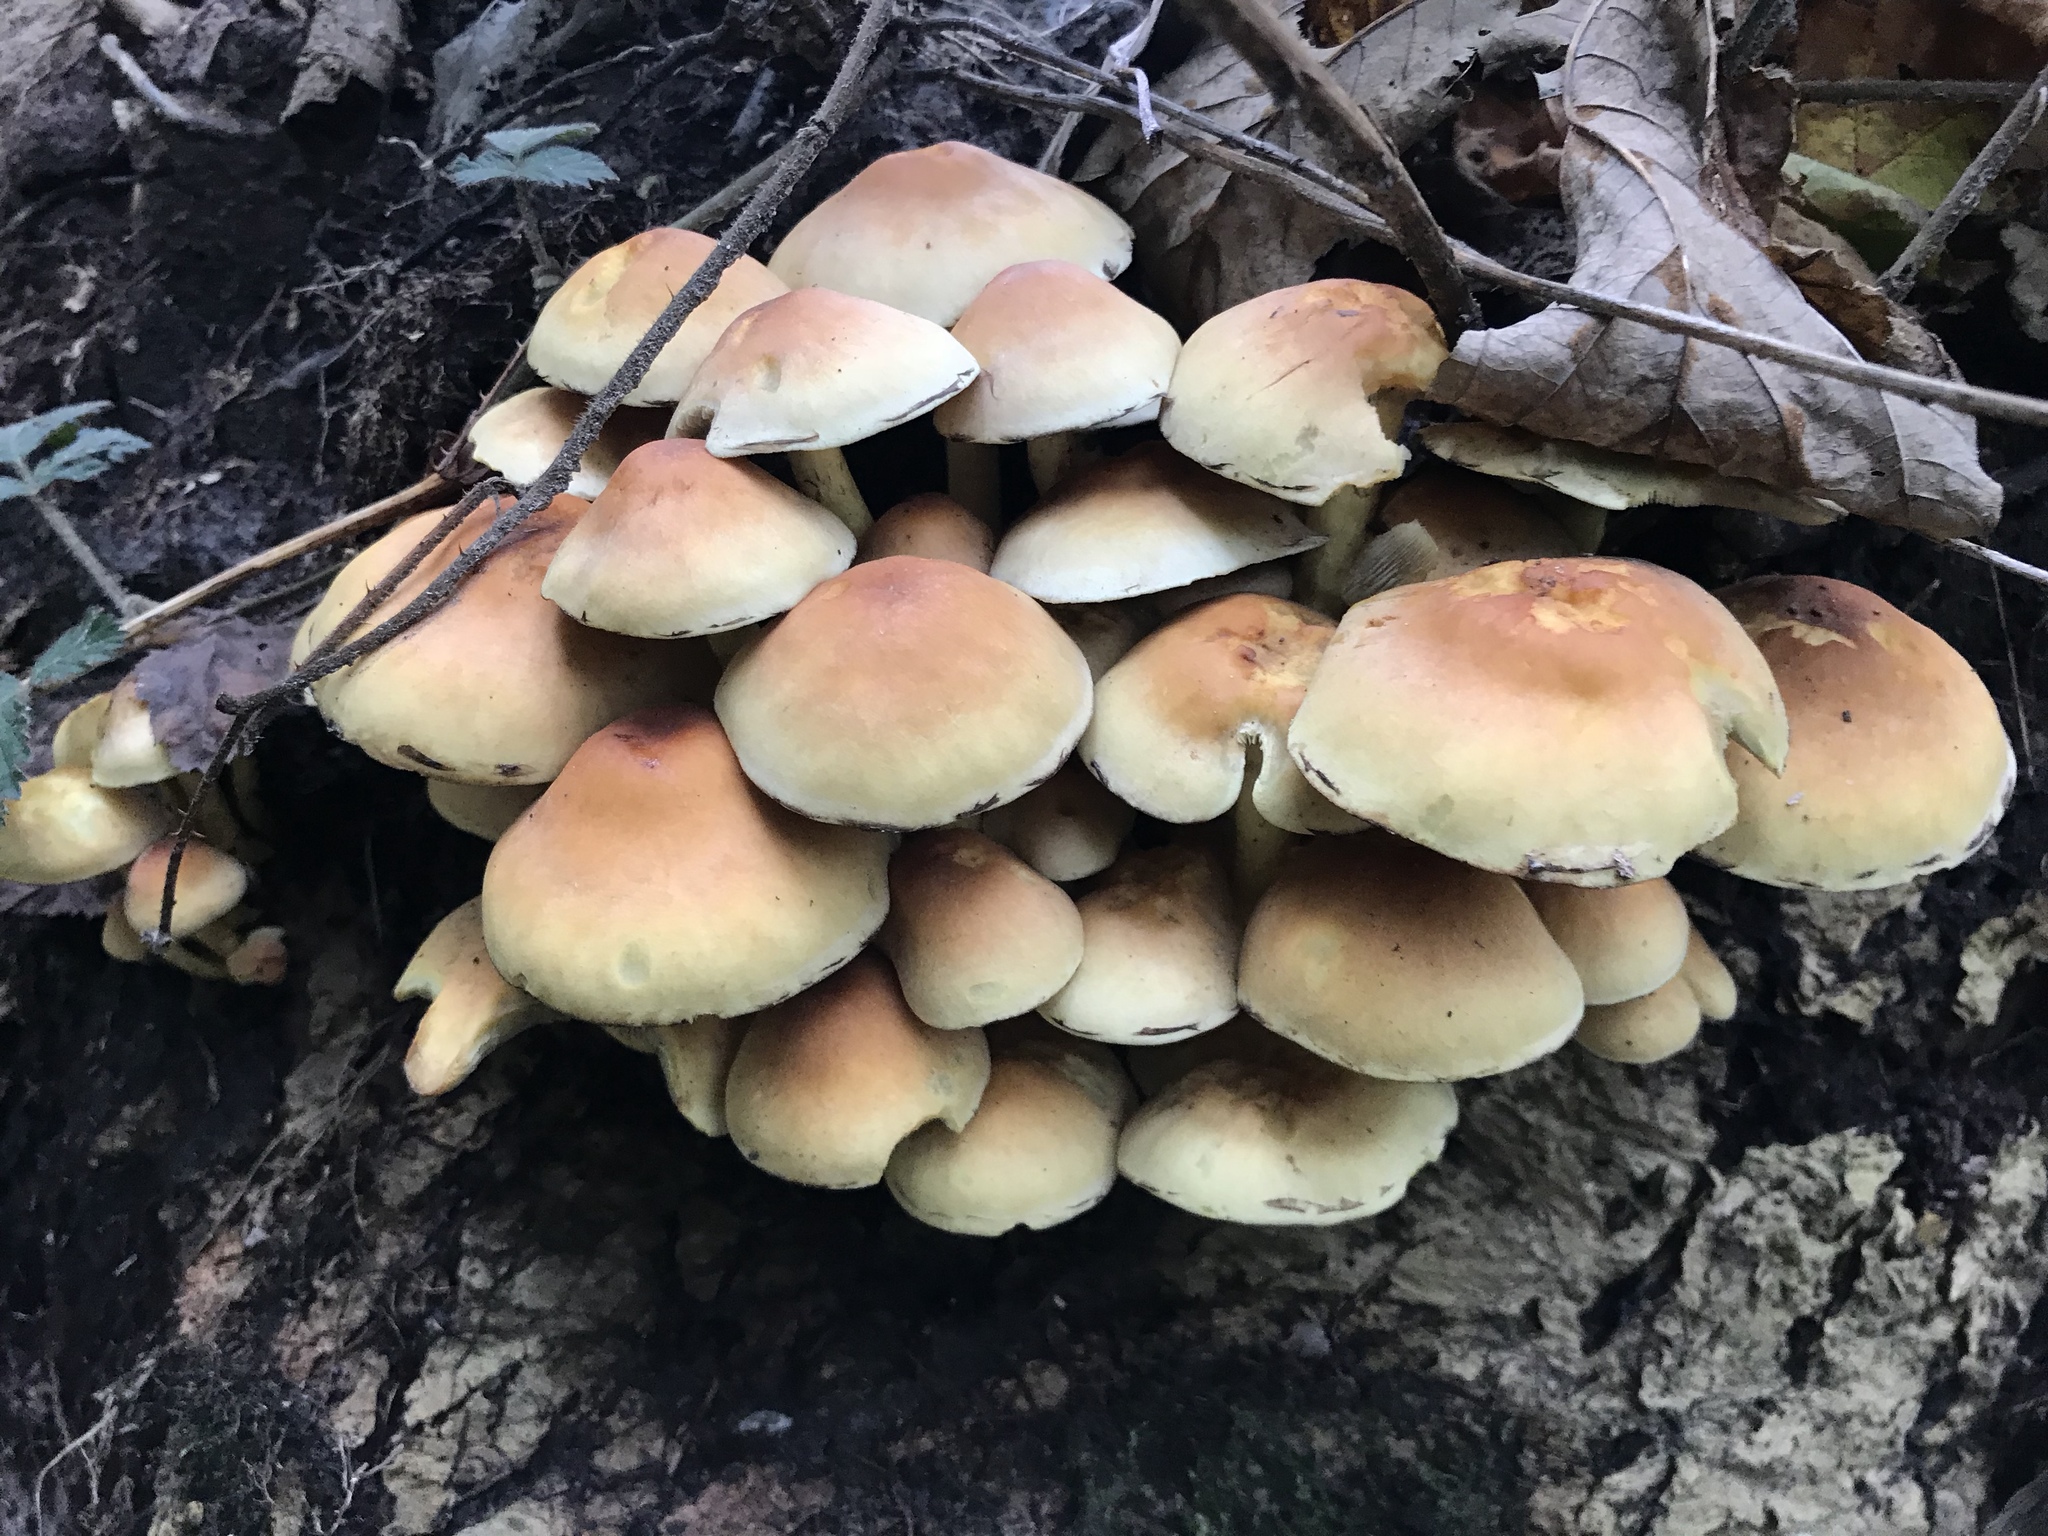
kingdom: Fungi
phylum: Basidiomycota
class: Agaricomycetes
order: Agaricales
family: Strophariaceae
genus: Hypholoma
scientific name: Hypholoma fasciculare
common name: Sulphur tuft
